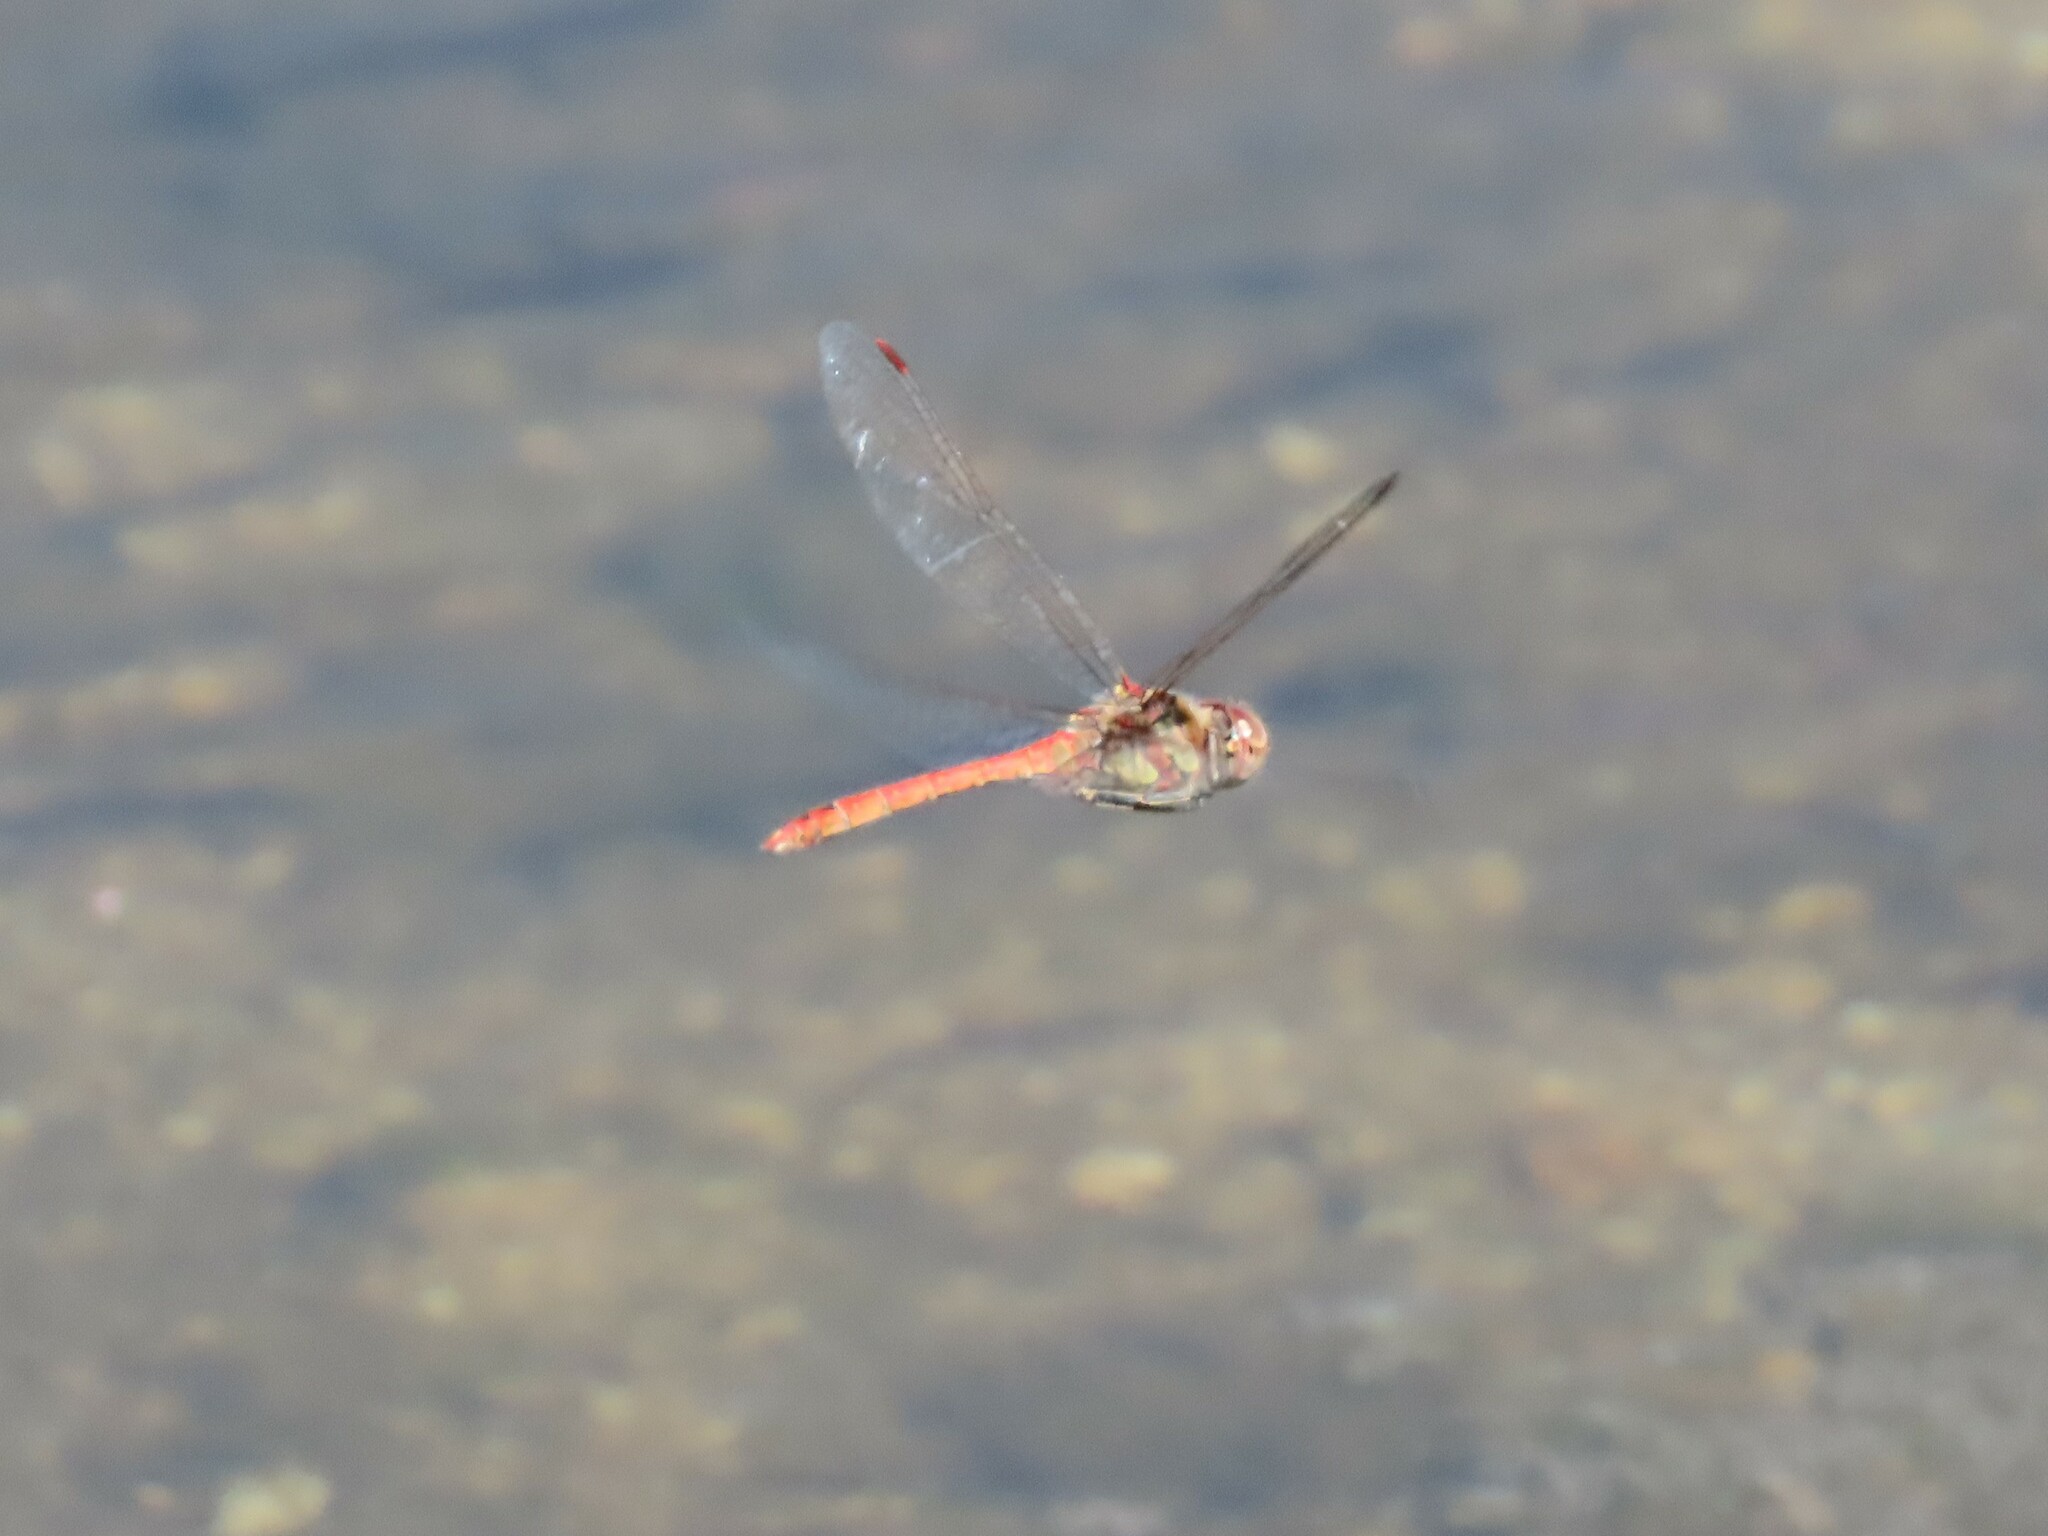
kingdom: Animalia
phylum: Arthropoda
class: Insecta
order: Odonata
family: Libellulidae
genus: Sympetrum
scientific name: Sympetrum striolatum
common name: Common darter
